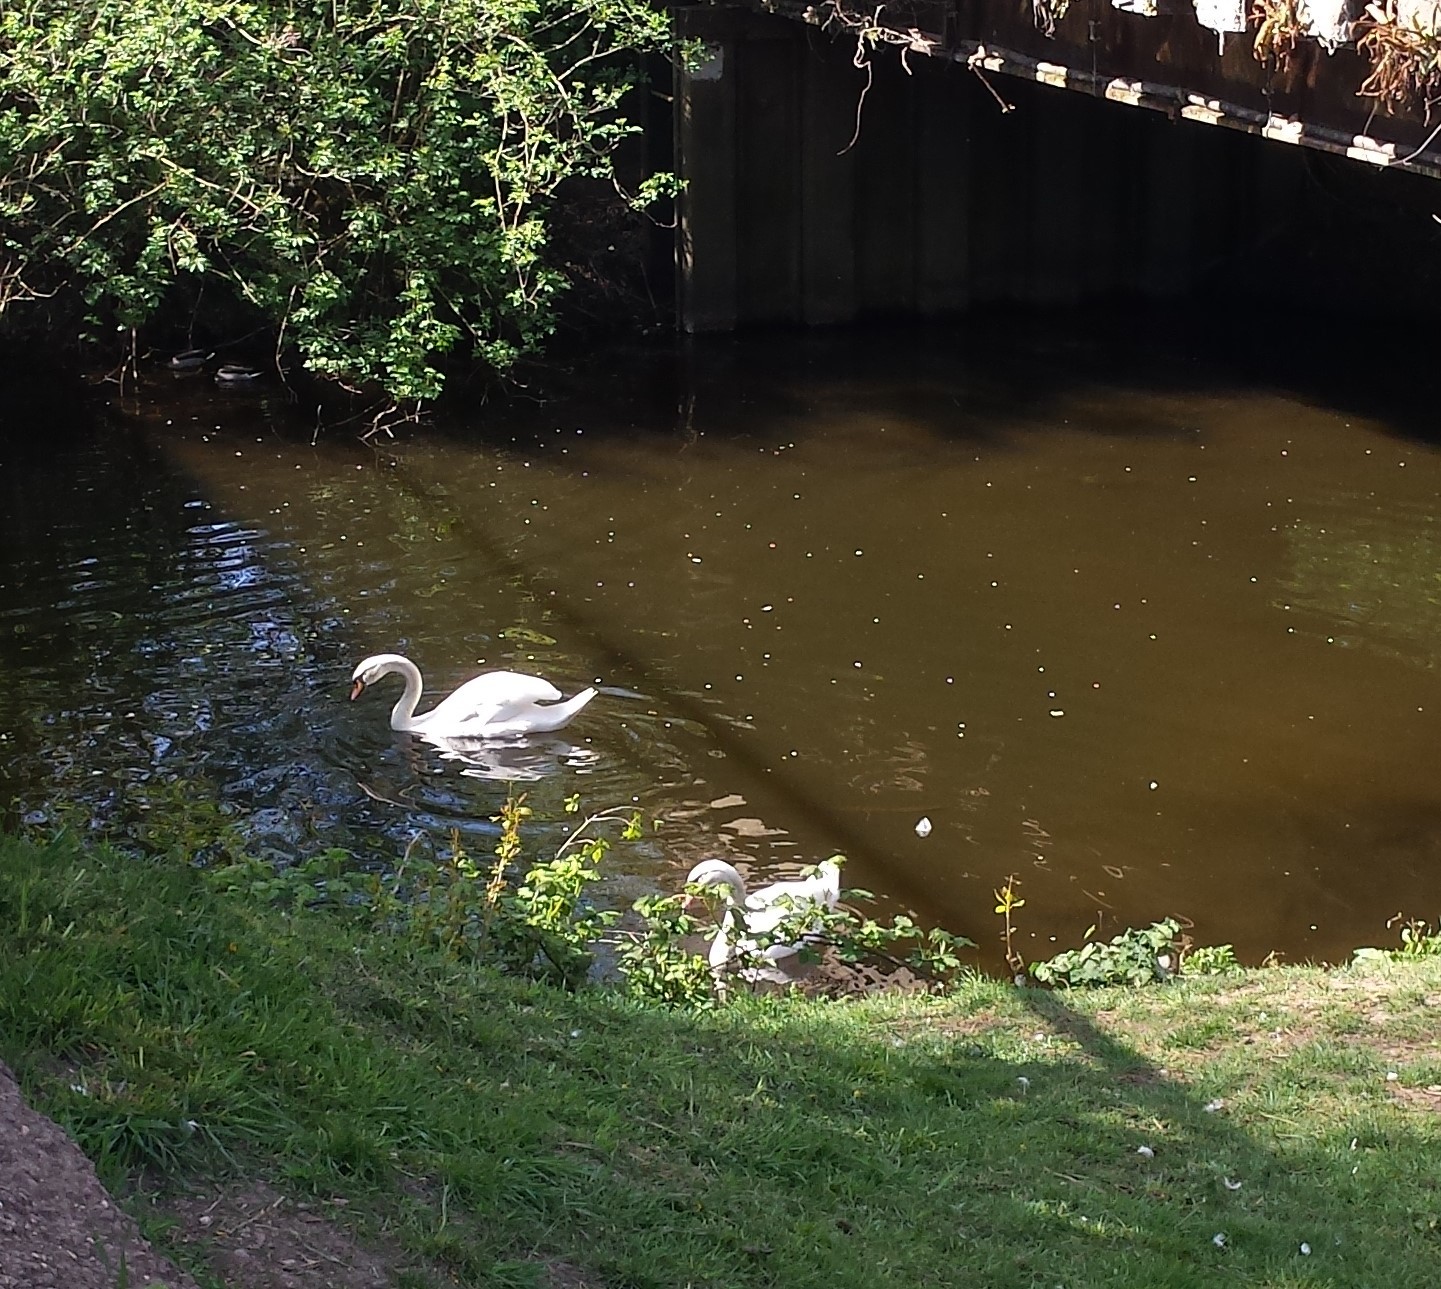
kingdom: Animalia
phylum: Chordata
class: Aves
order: Anseriformes
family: Anatidae
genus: Cygnus
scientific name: Cygnus olor
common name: Mute swan
